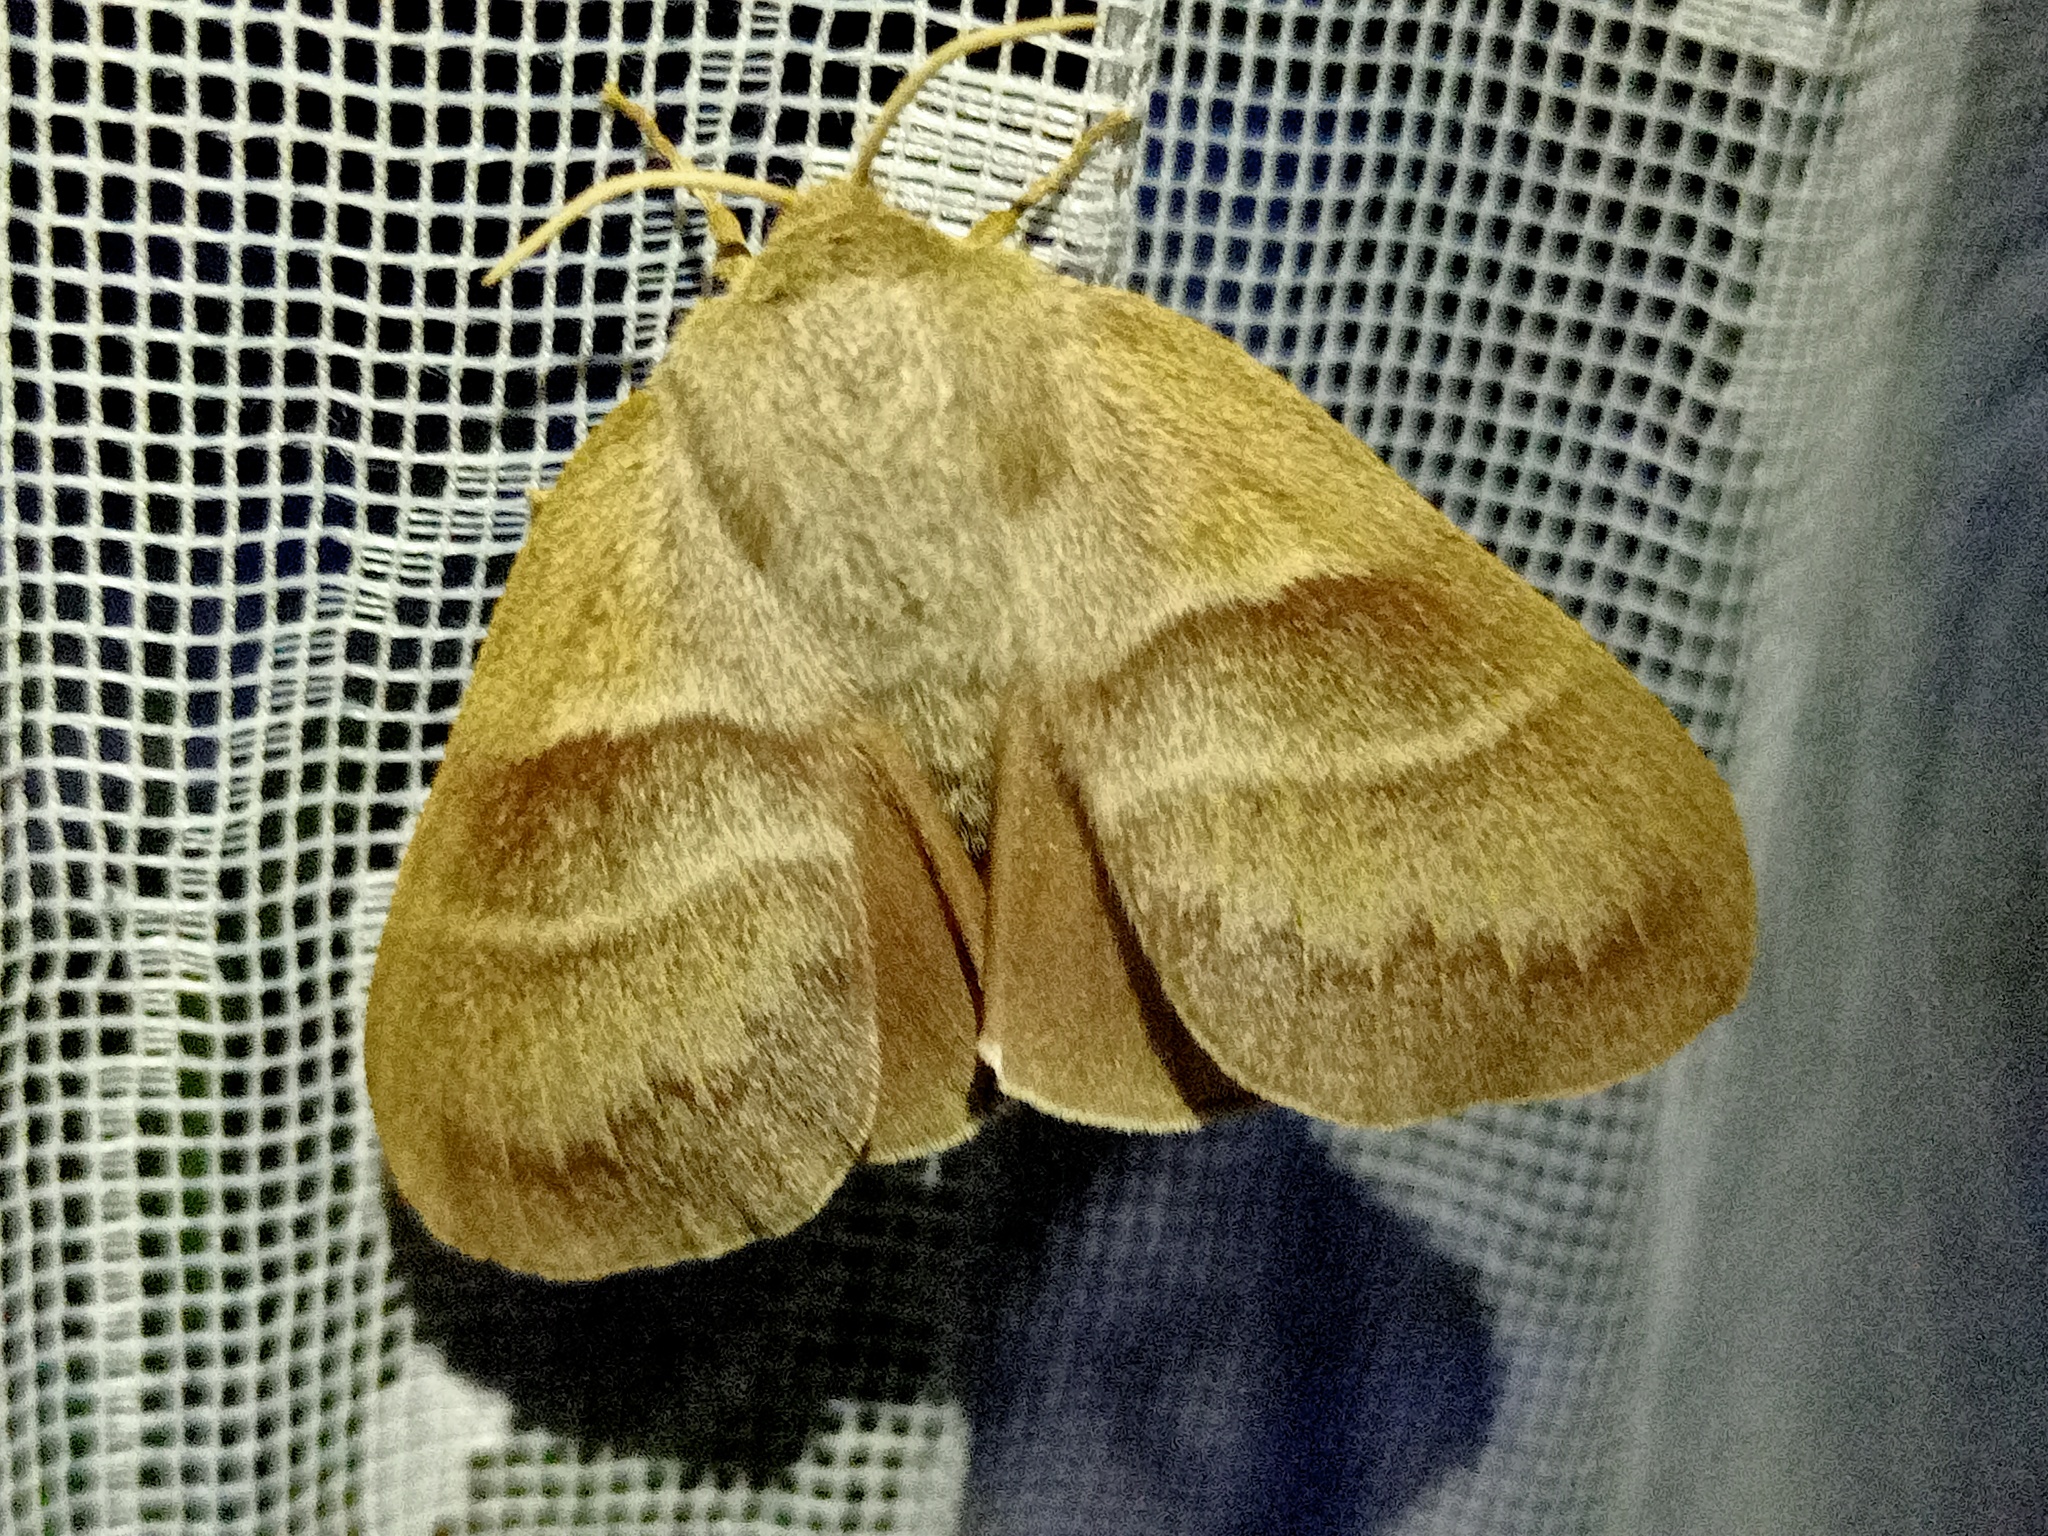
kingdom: Animalia
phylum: Arthropoda
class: Insecta
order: Lepidoptera
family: Lasiocampidae
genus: Macrothylacia
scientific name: Macrothylacia rubi
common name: Fox moth
